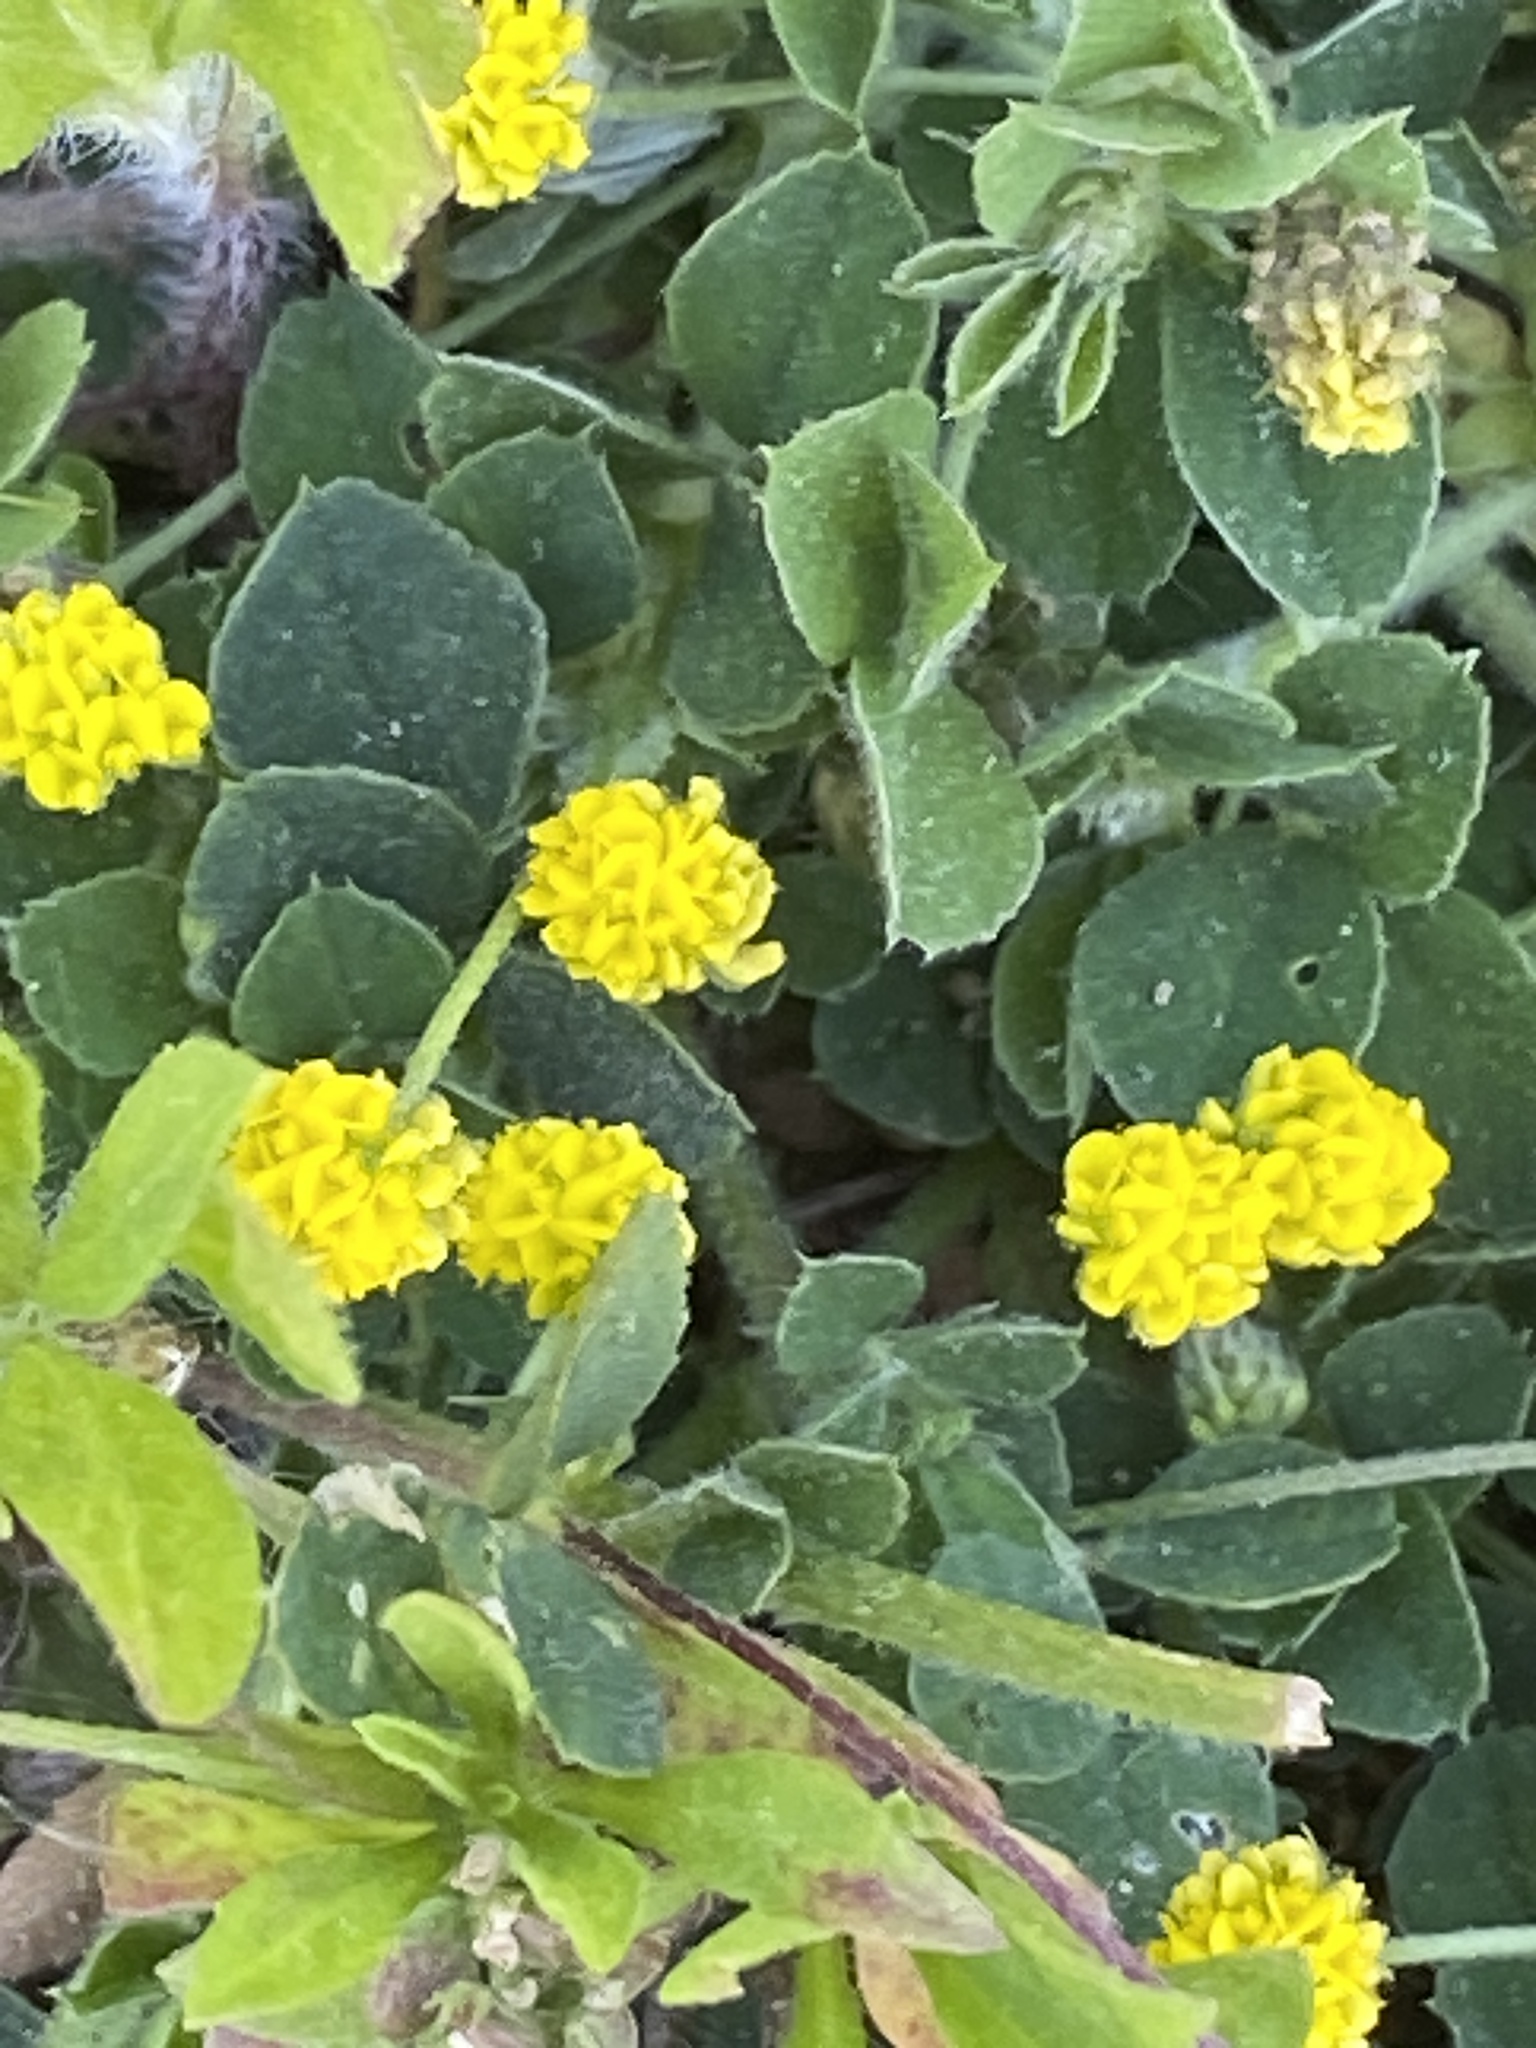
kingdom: Plantae
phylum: Tracheophyta
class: Magnoliopsida
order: Fabales
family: Fabaceae
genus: Medicago
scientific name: Medicago lupulina
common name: Black medick
